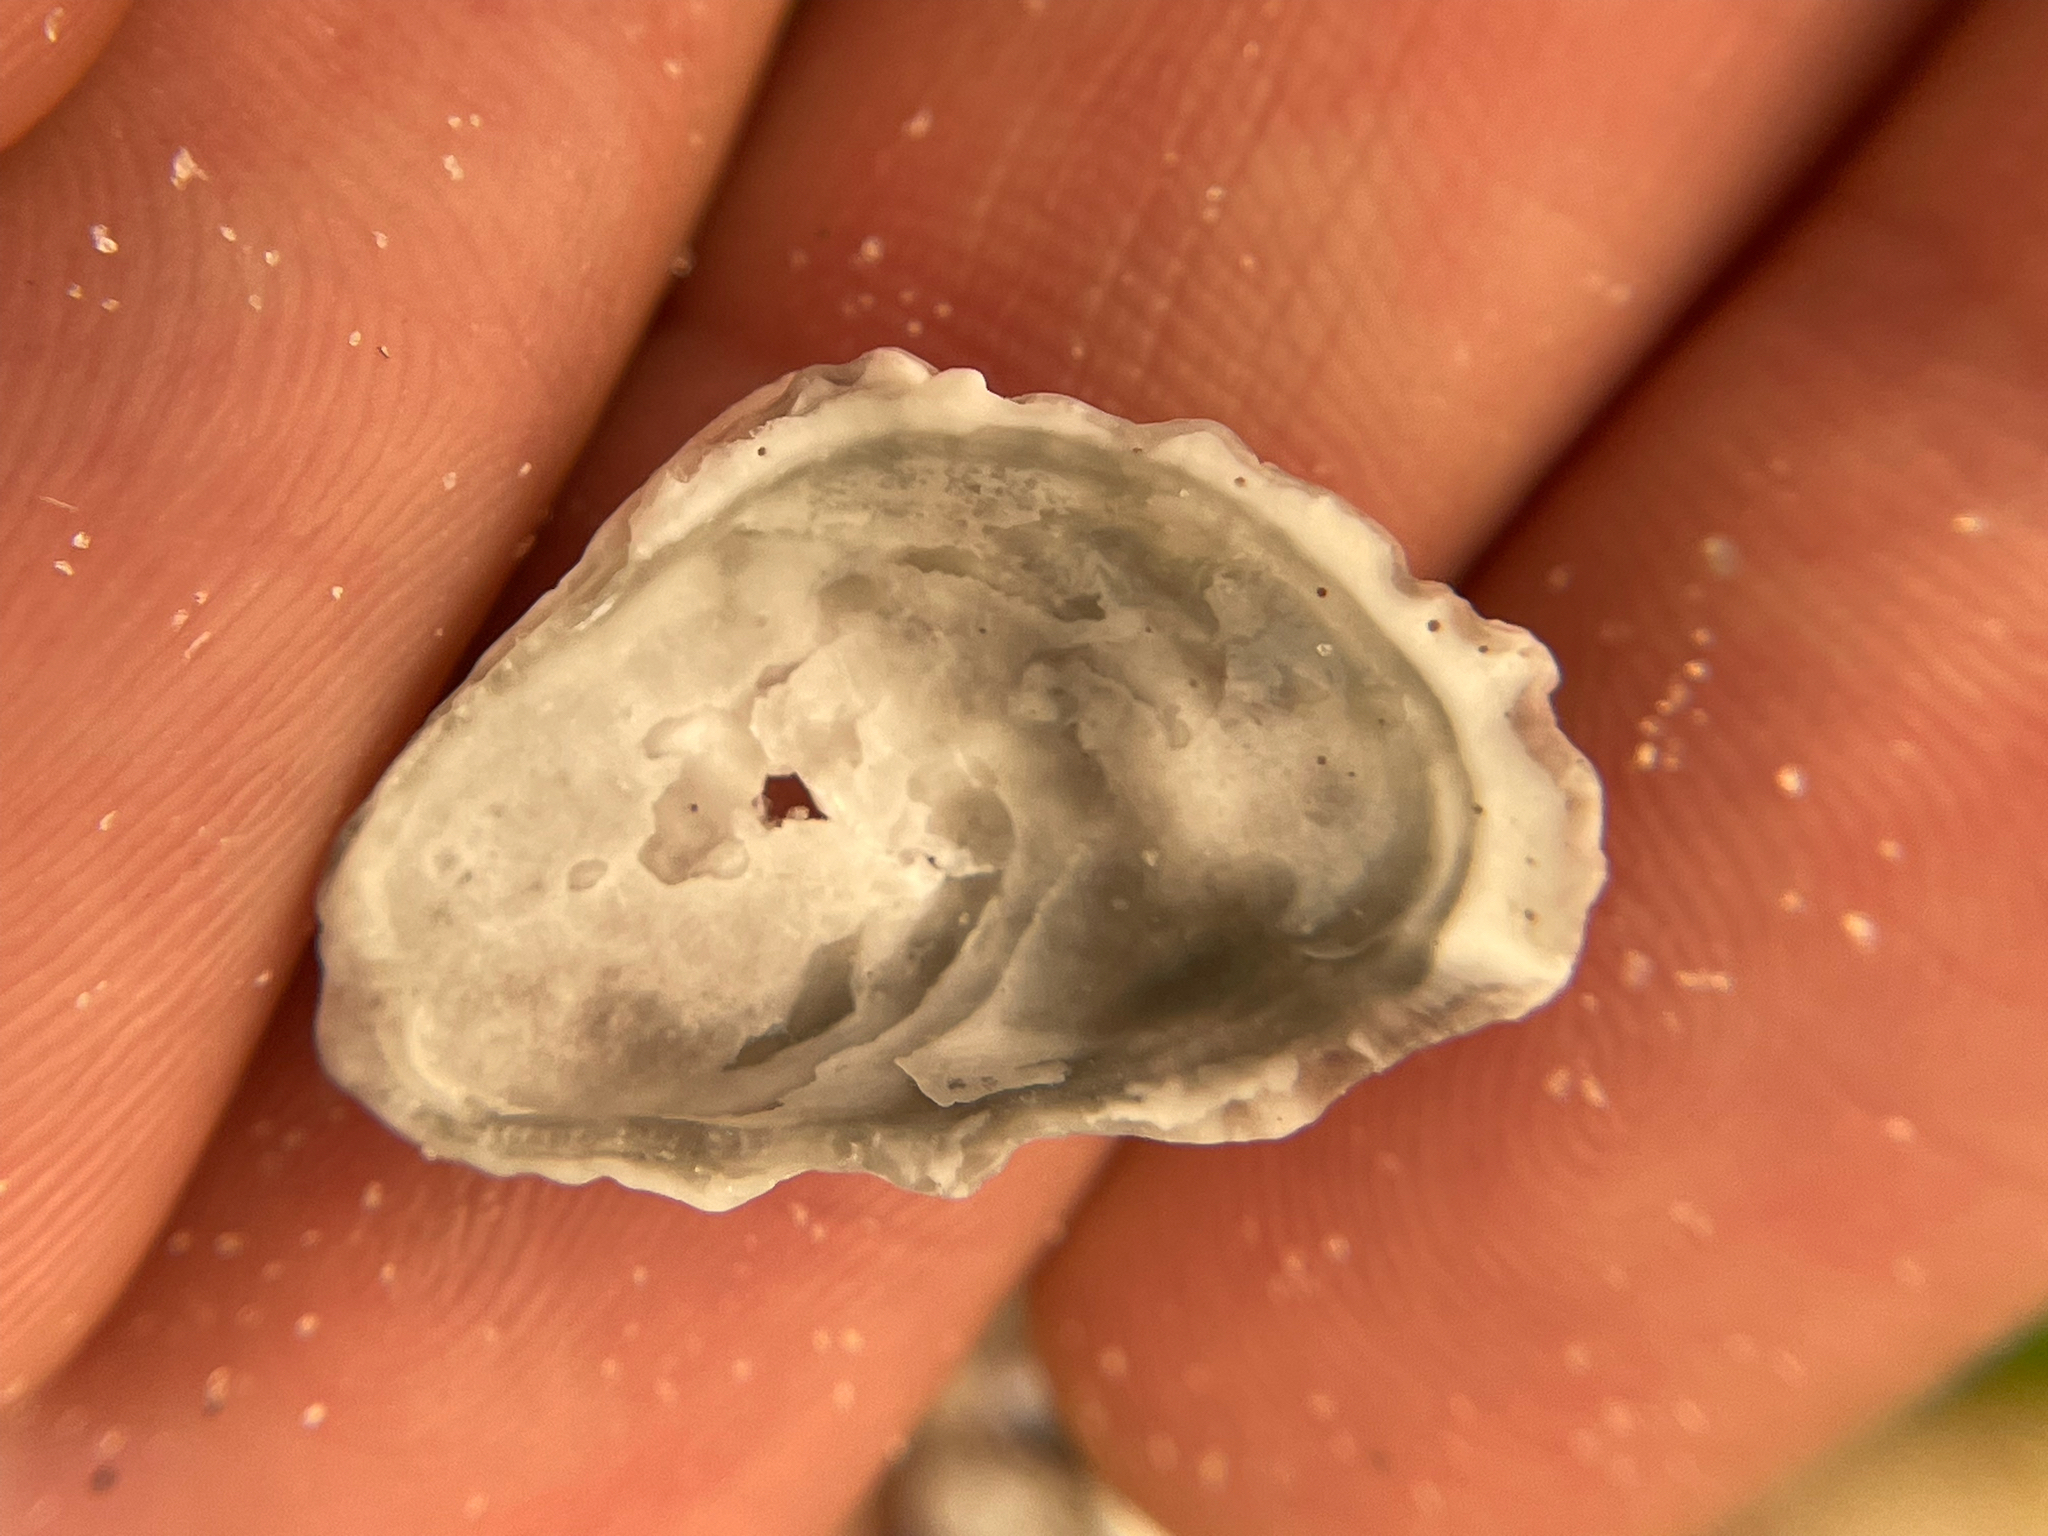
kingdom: Animalia
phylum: Mollusca
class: Bivalvia
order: Ostreida
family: Ostreidae
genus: Ostrea
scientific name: Ostrea equestris
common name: Crested oyster
